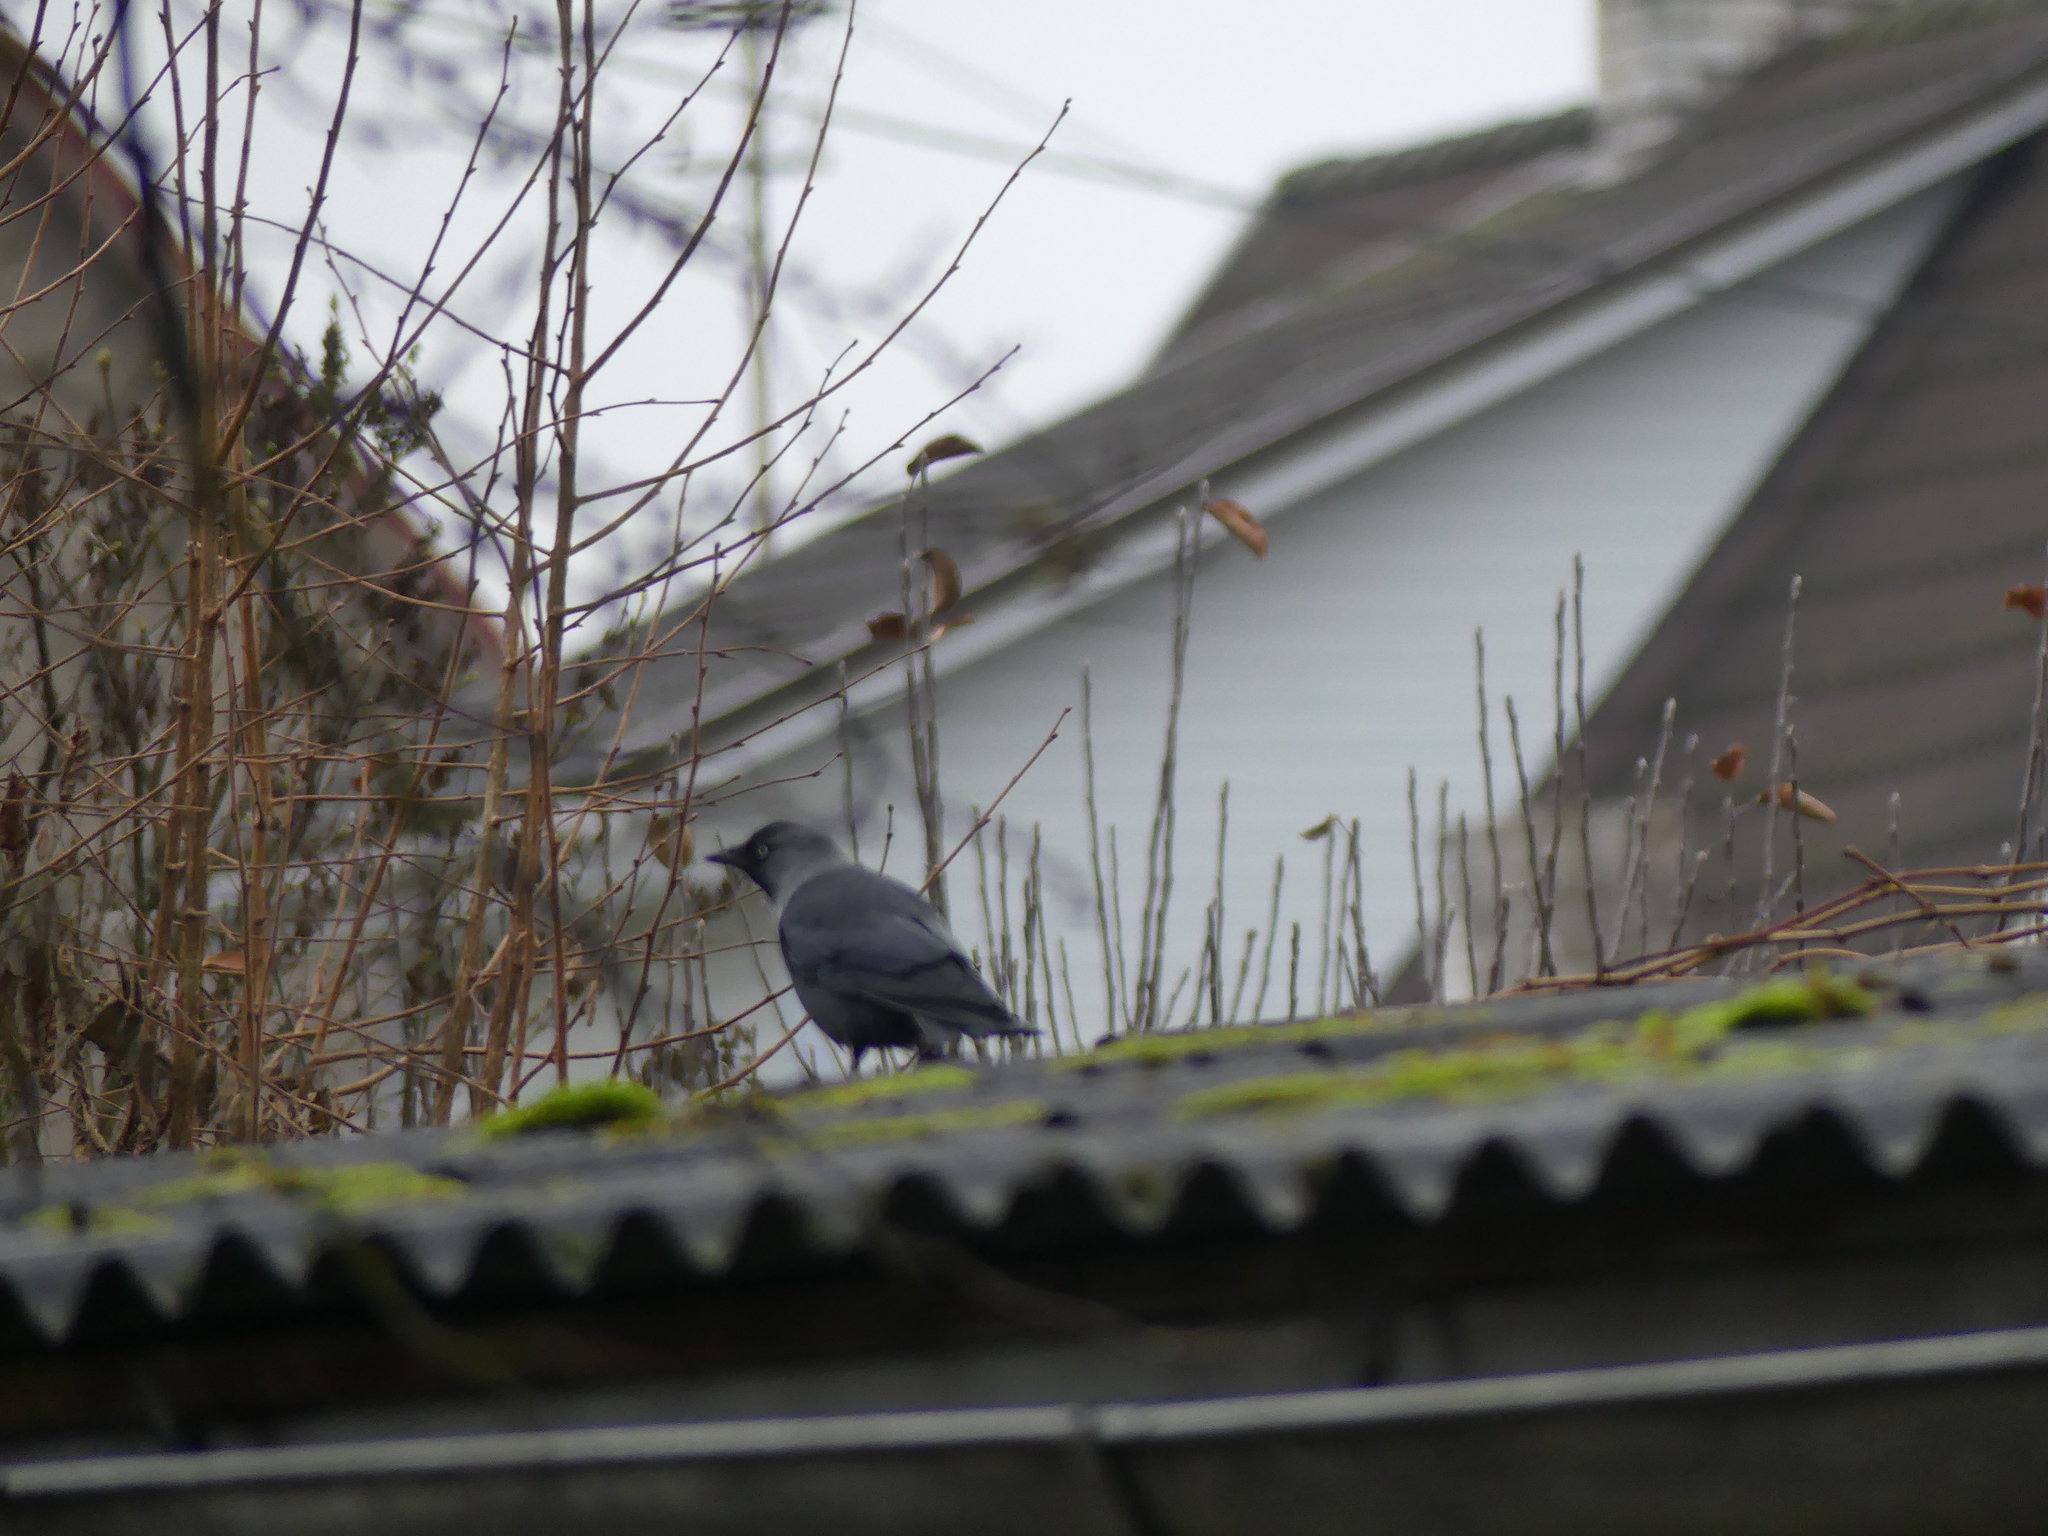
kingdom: Animalia
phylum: Chordata
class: Aves
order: Passeriformes
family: Corvidae
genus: Coloeus
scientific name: Coloeus monedula
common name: Western jackdaw
